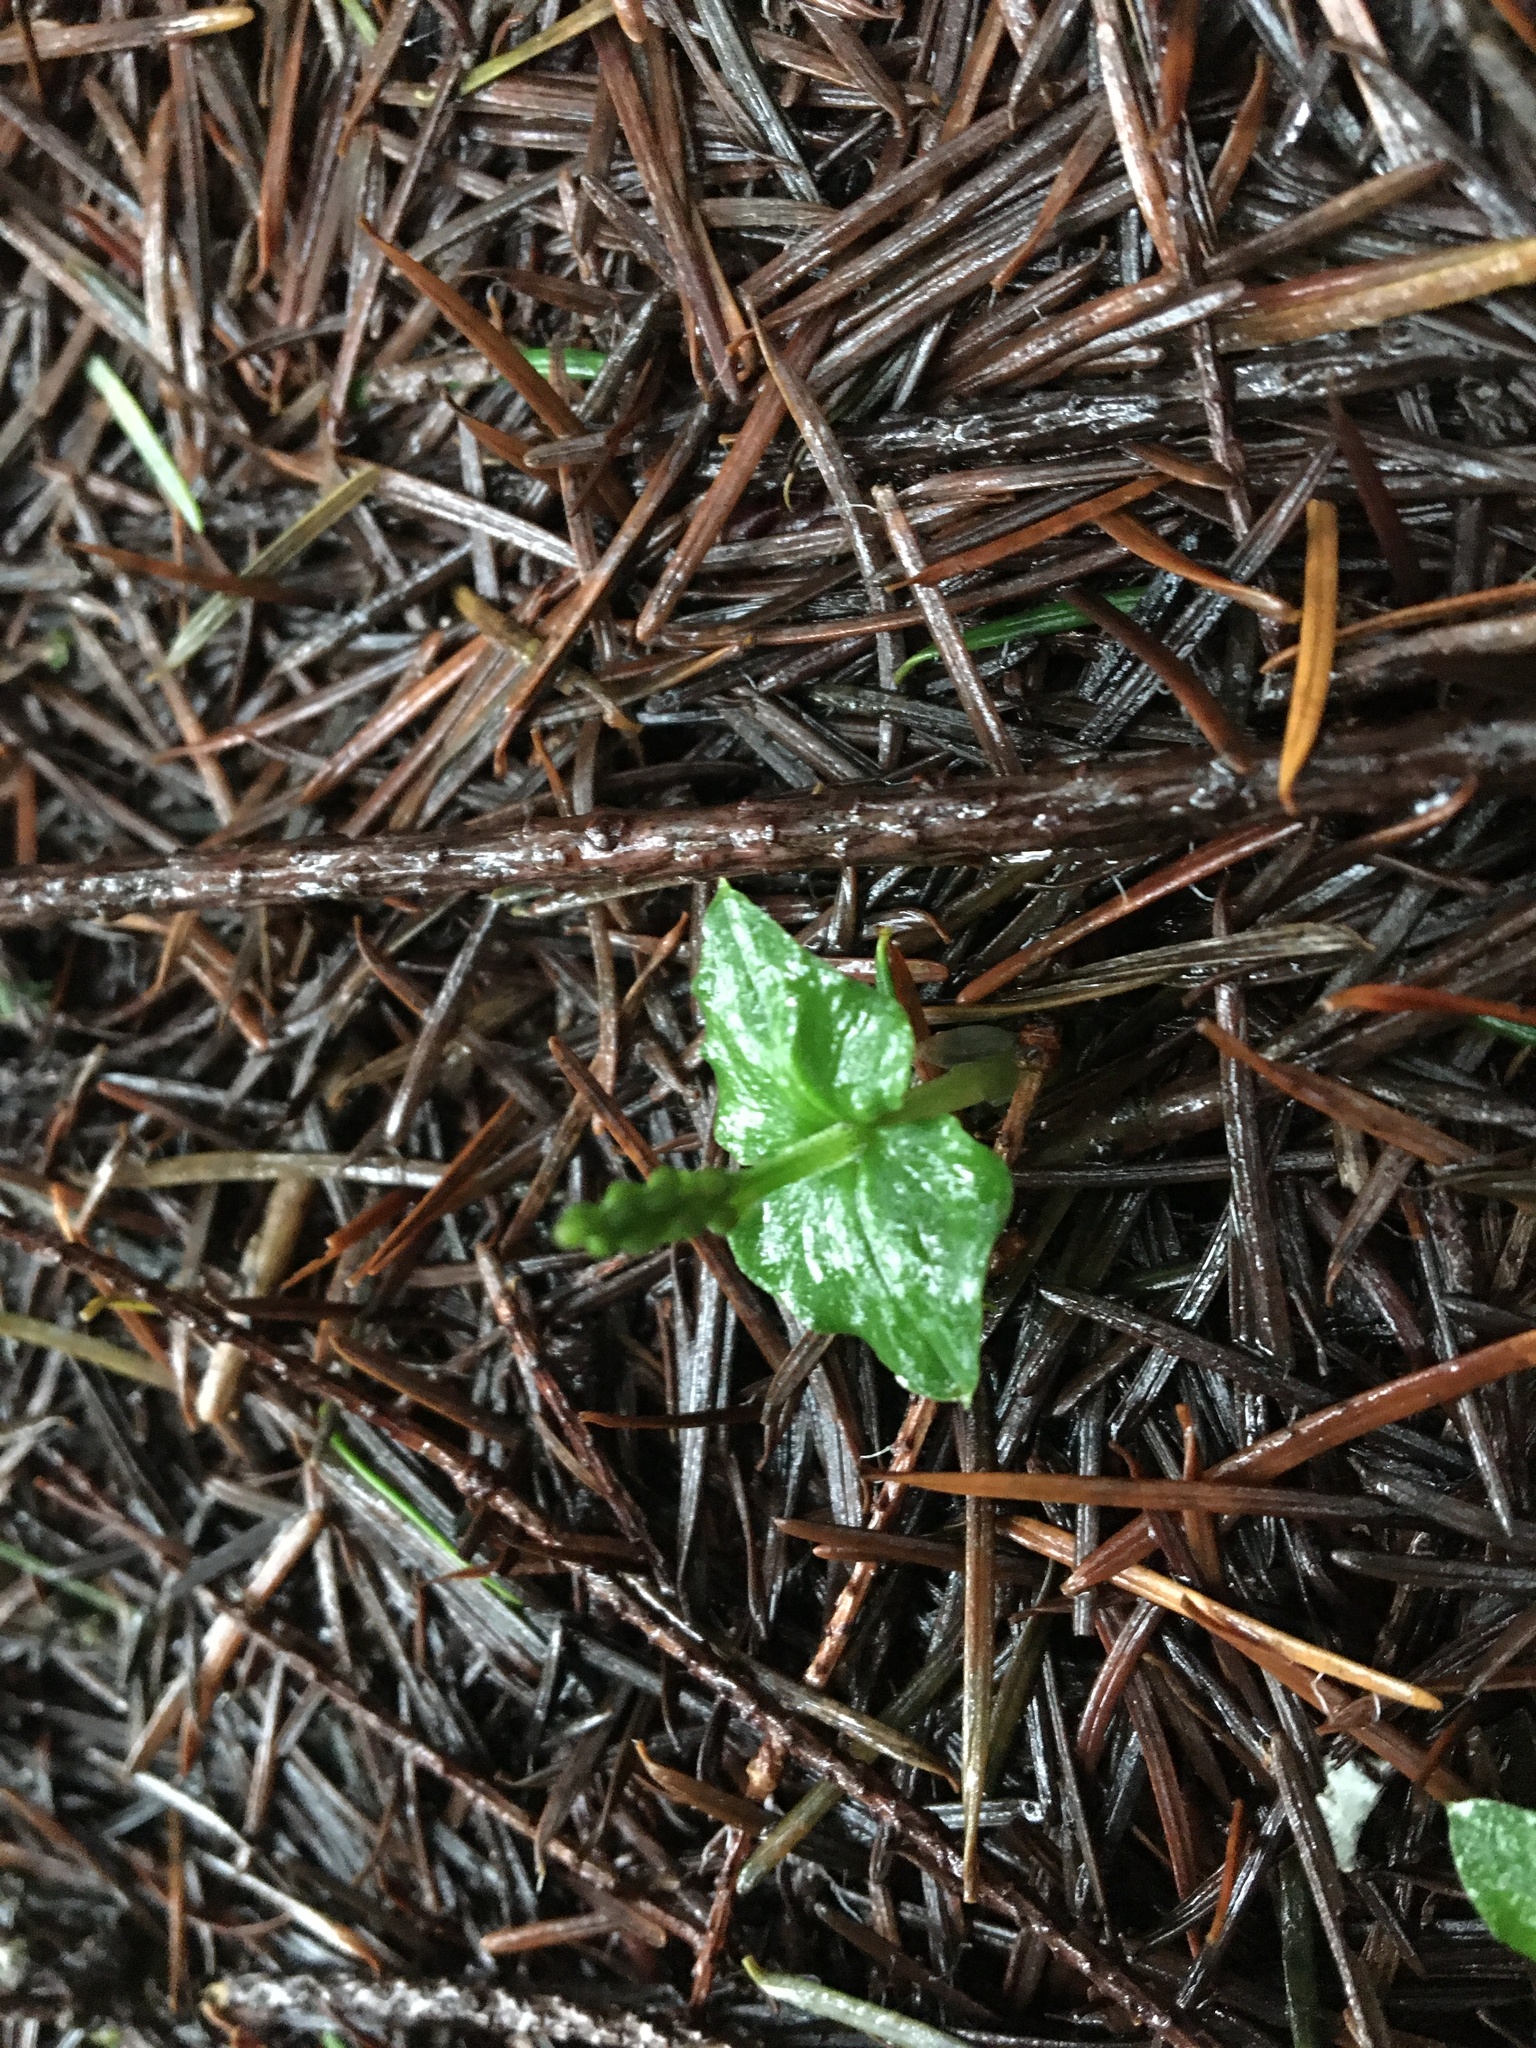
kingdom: Plantae
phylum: Tracheophyta
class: Liliopsida
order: Asparagales
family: Orchidaceae
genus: Neottia
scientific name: Neottia cordata
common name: Lesser twayblade
